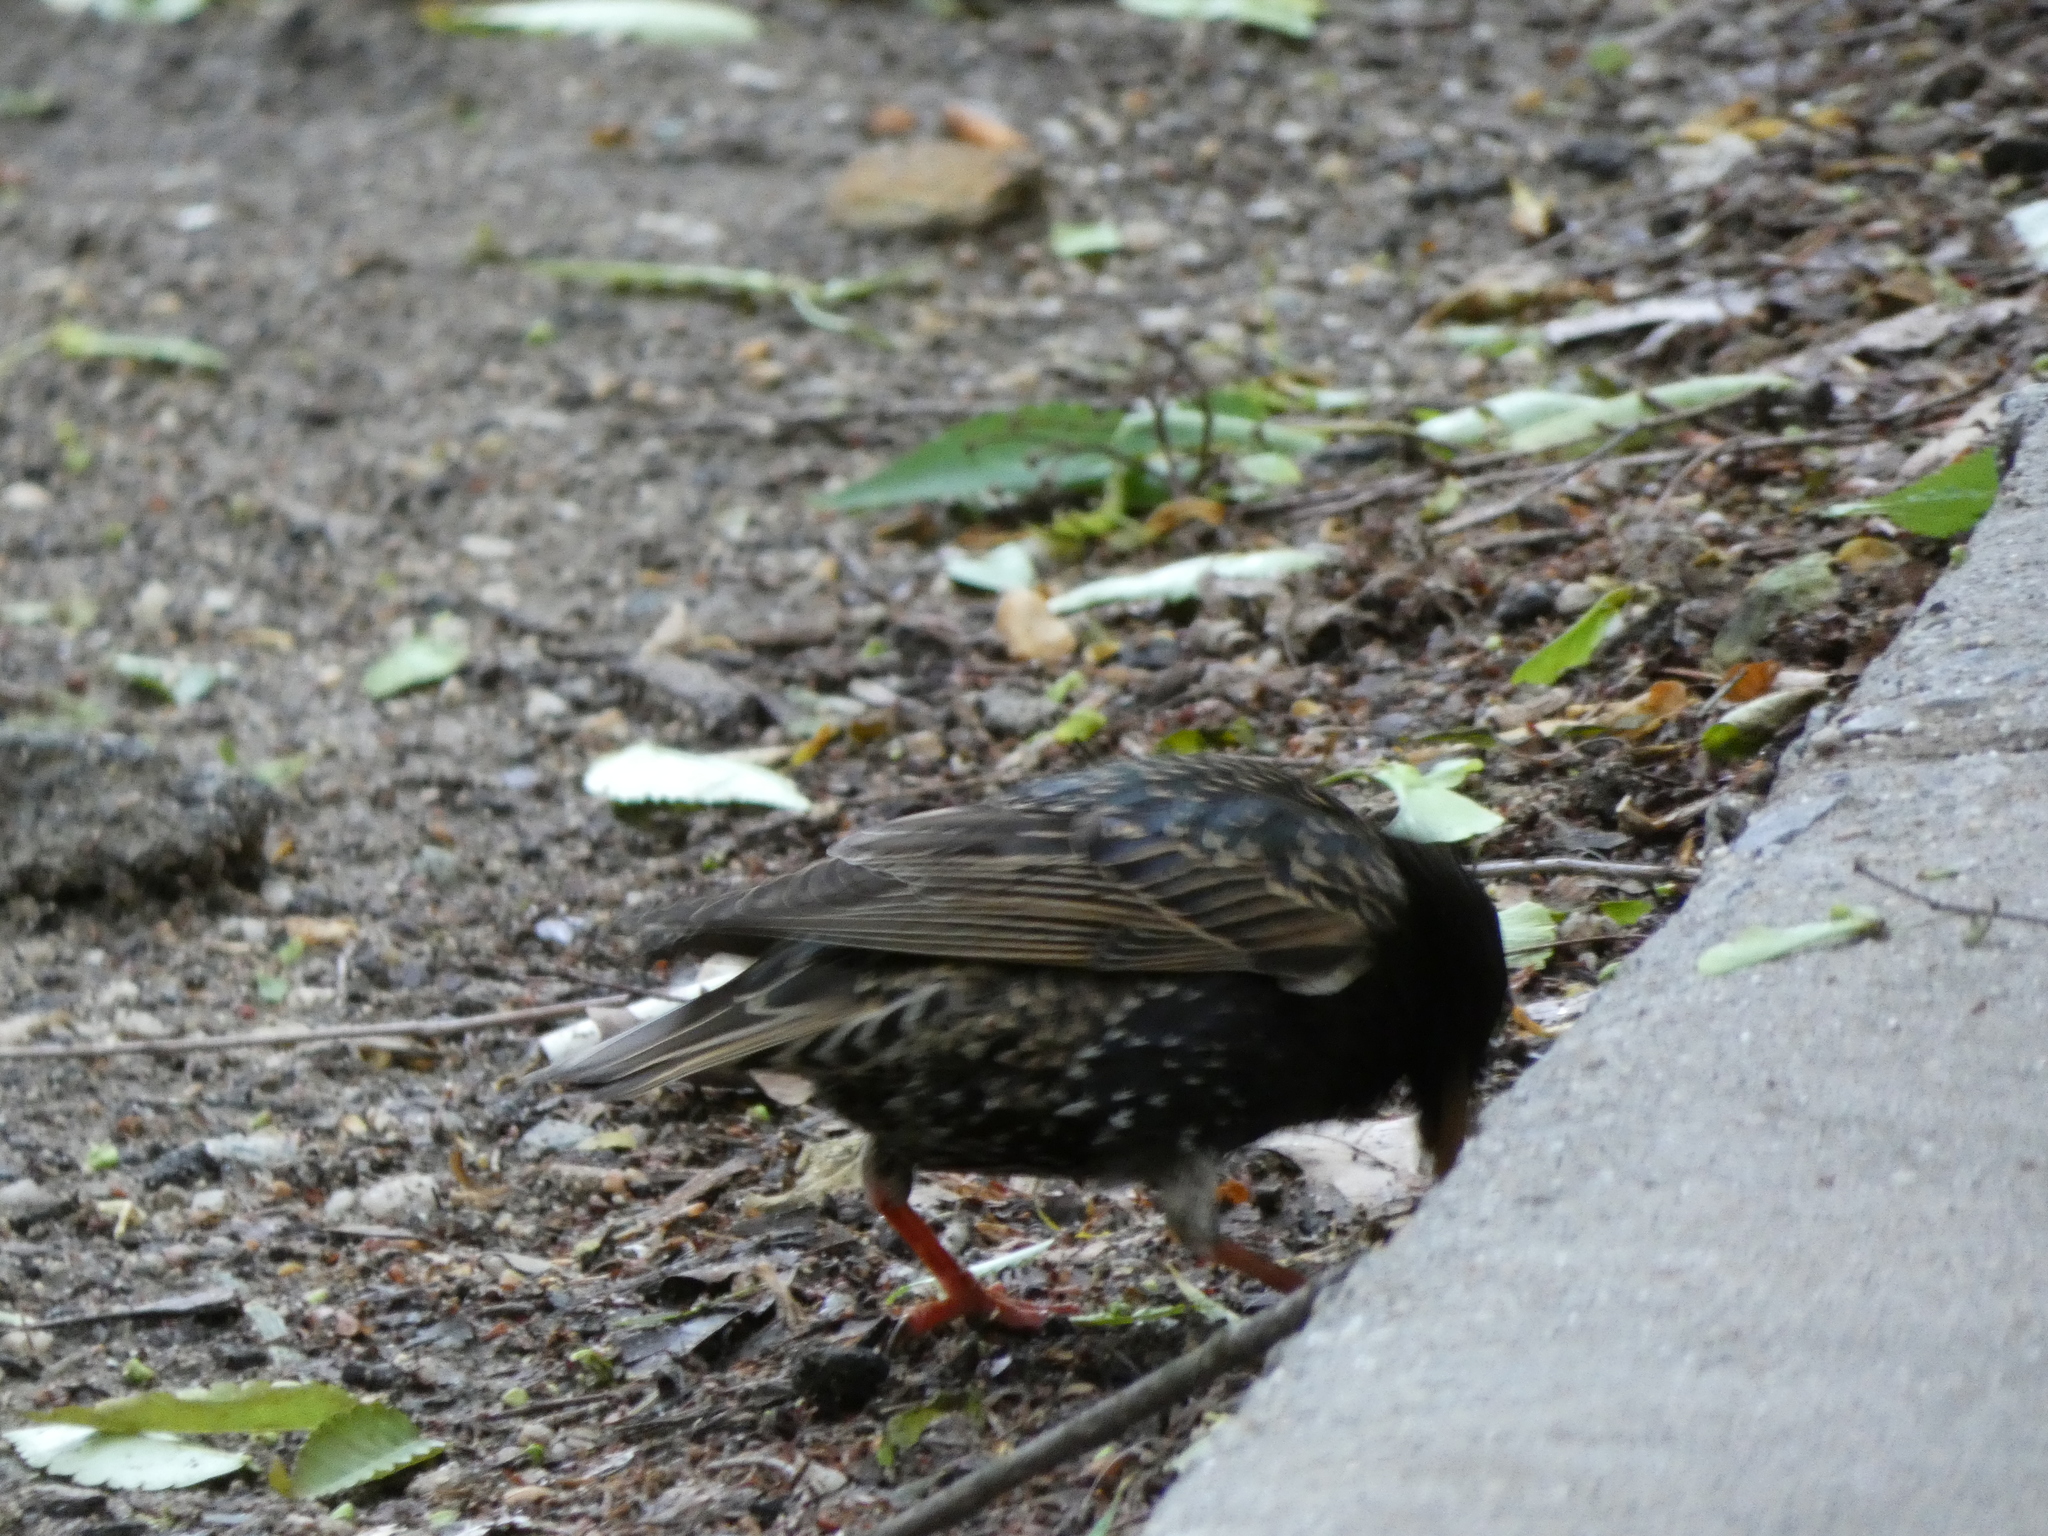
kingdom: Animalia
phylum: Chordata
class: Aves
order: Passeriformes
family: Sturnidae
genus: Sturnus
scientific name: Sturnus vulgaris
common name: Common starling
